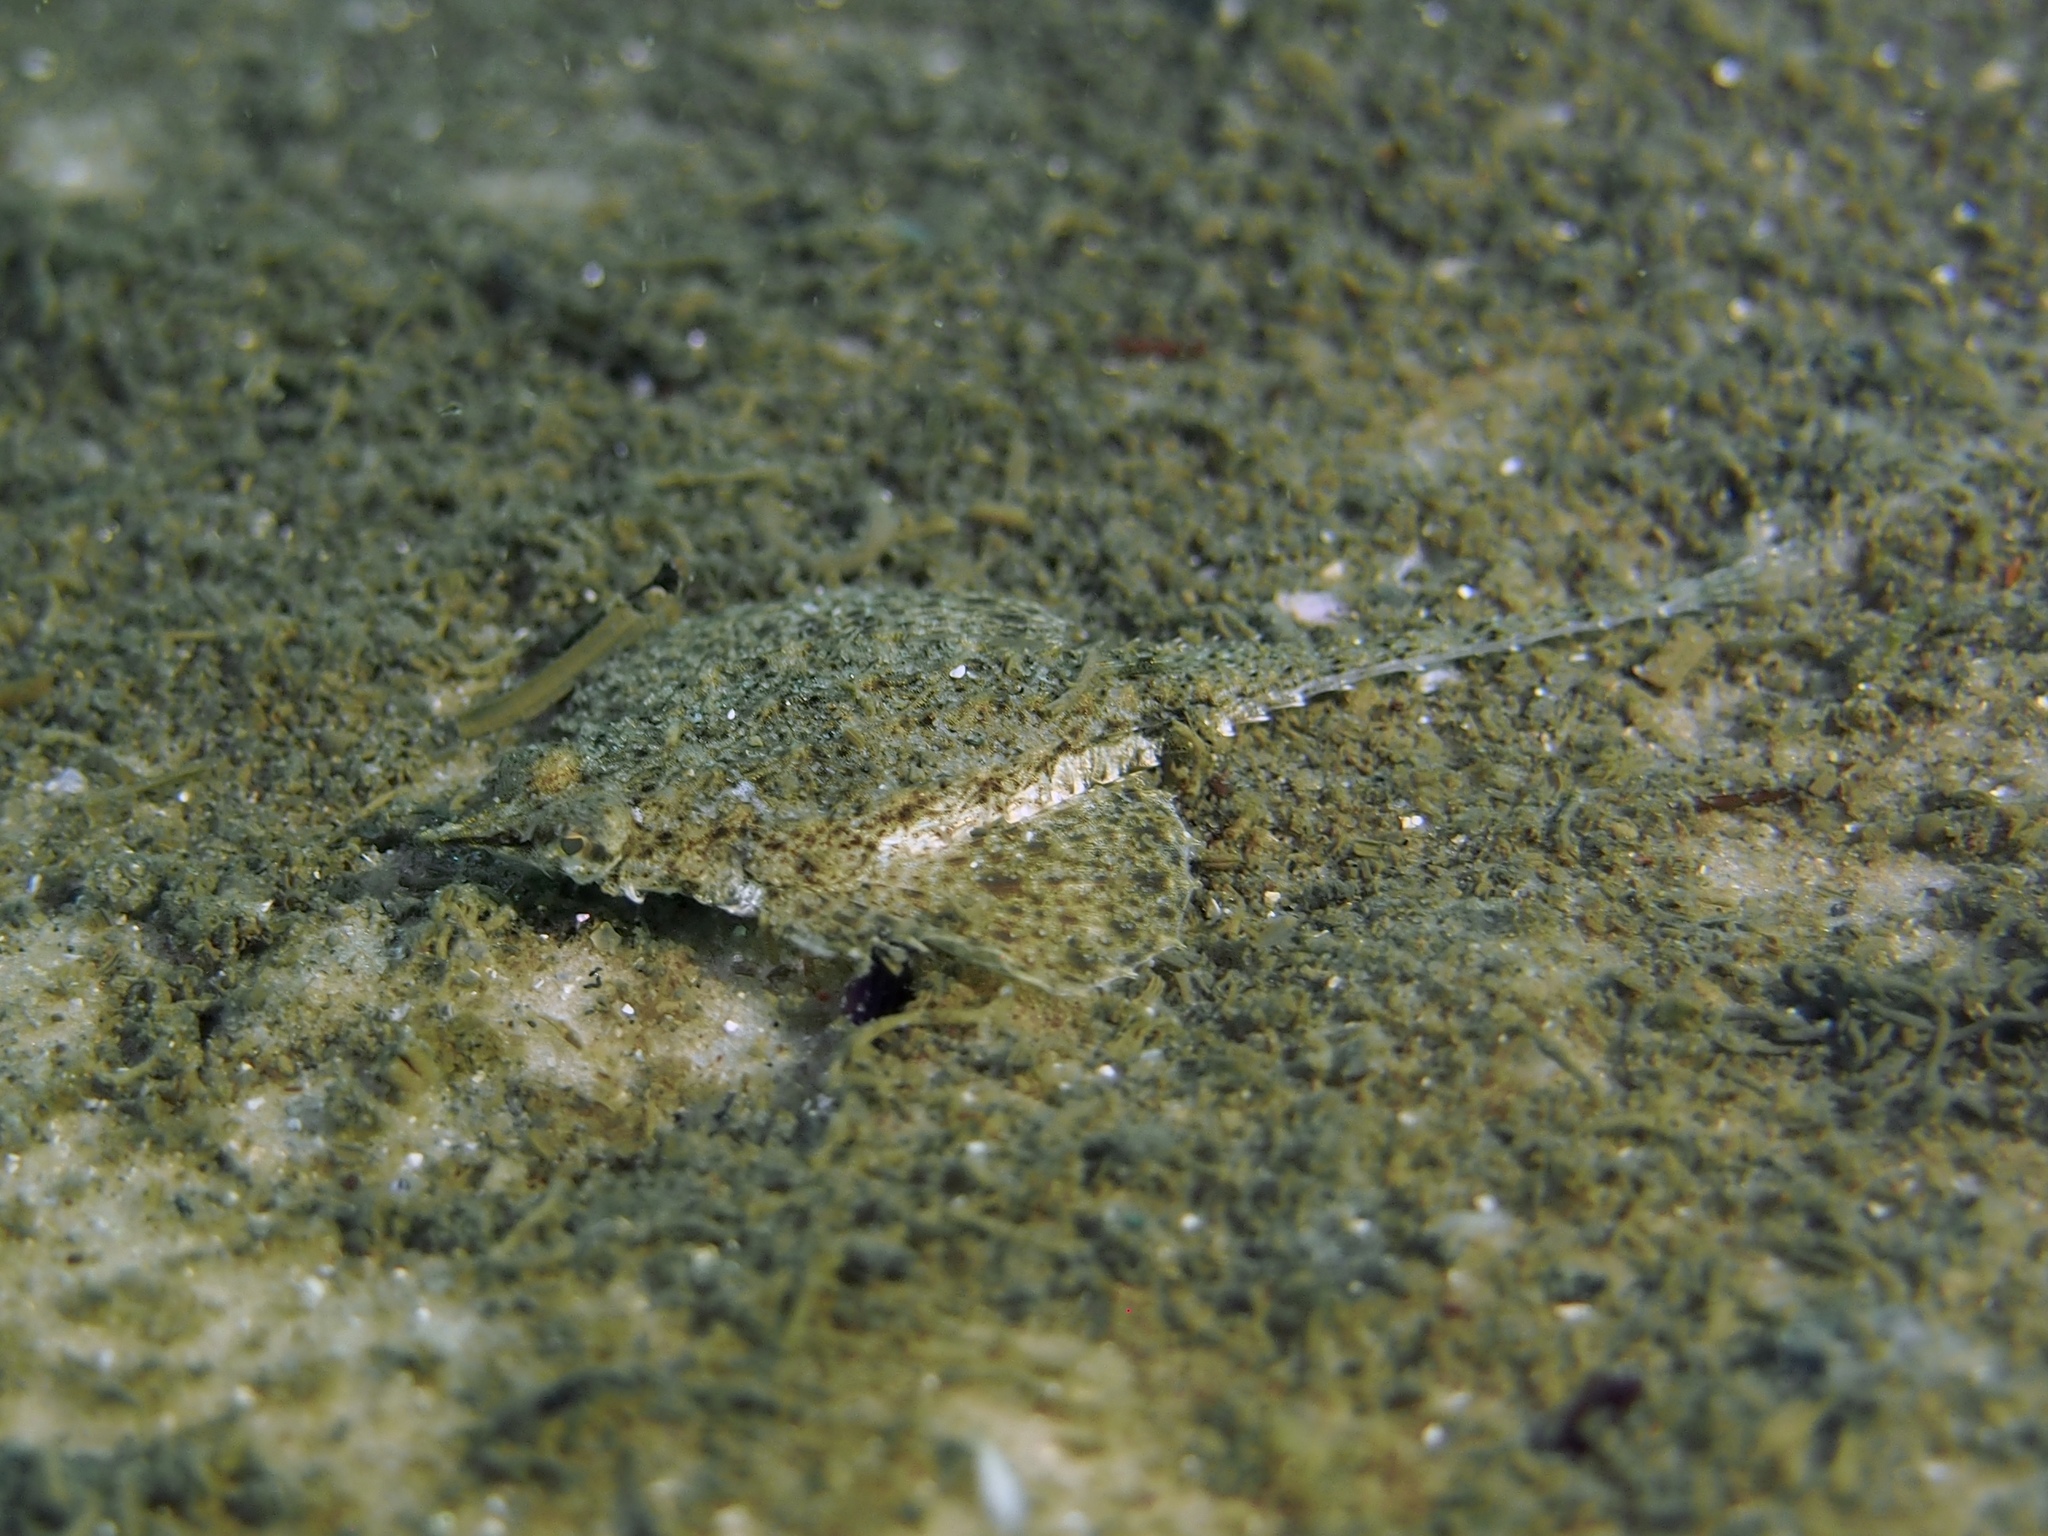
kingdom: Animalia
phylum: Chordata
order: Gasterosteiformes
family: Pegasidae
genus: Pegasus
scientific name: Pegasus lancifer
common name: Dragonfish
